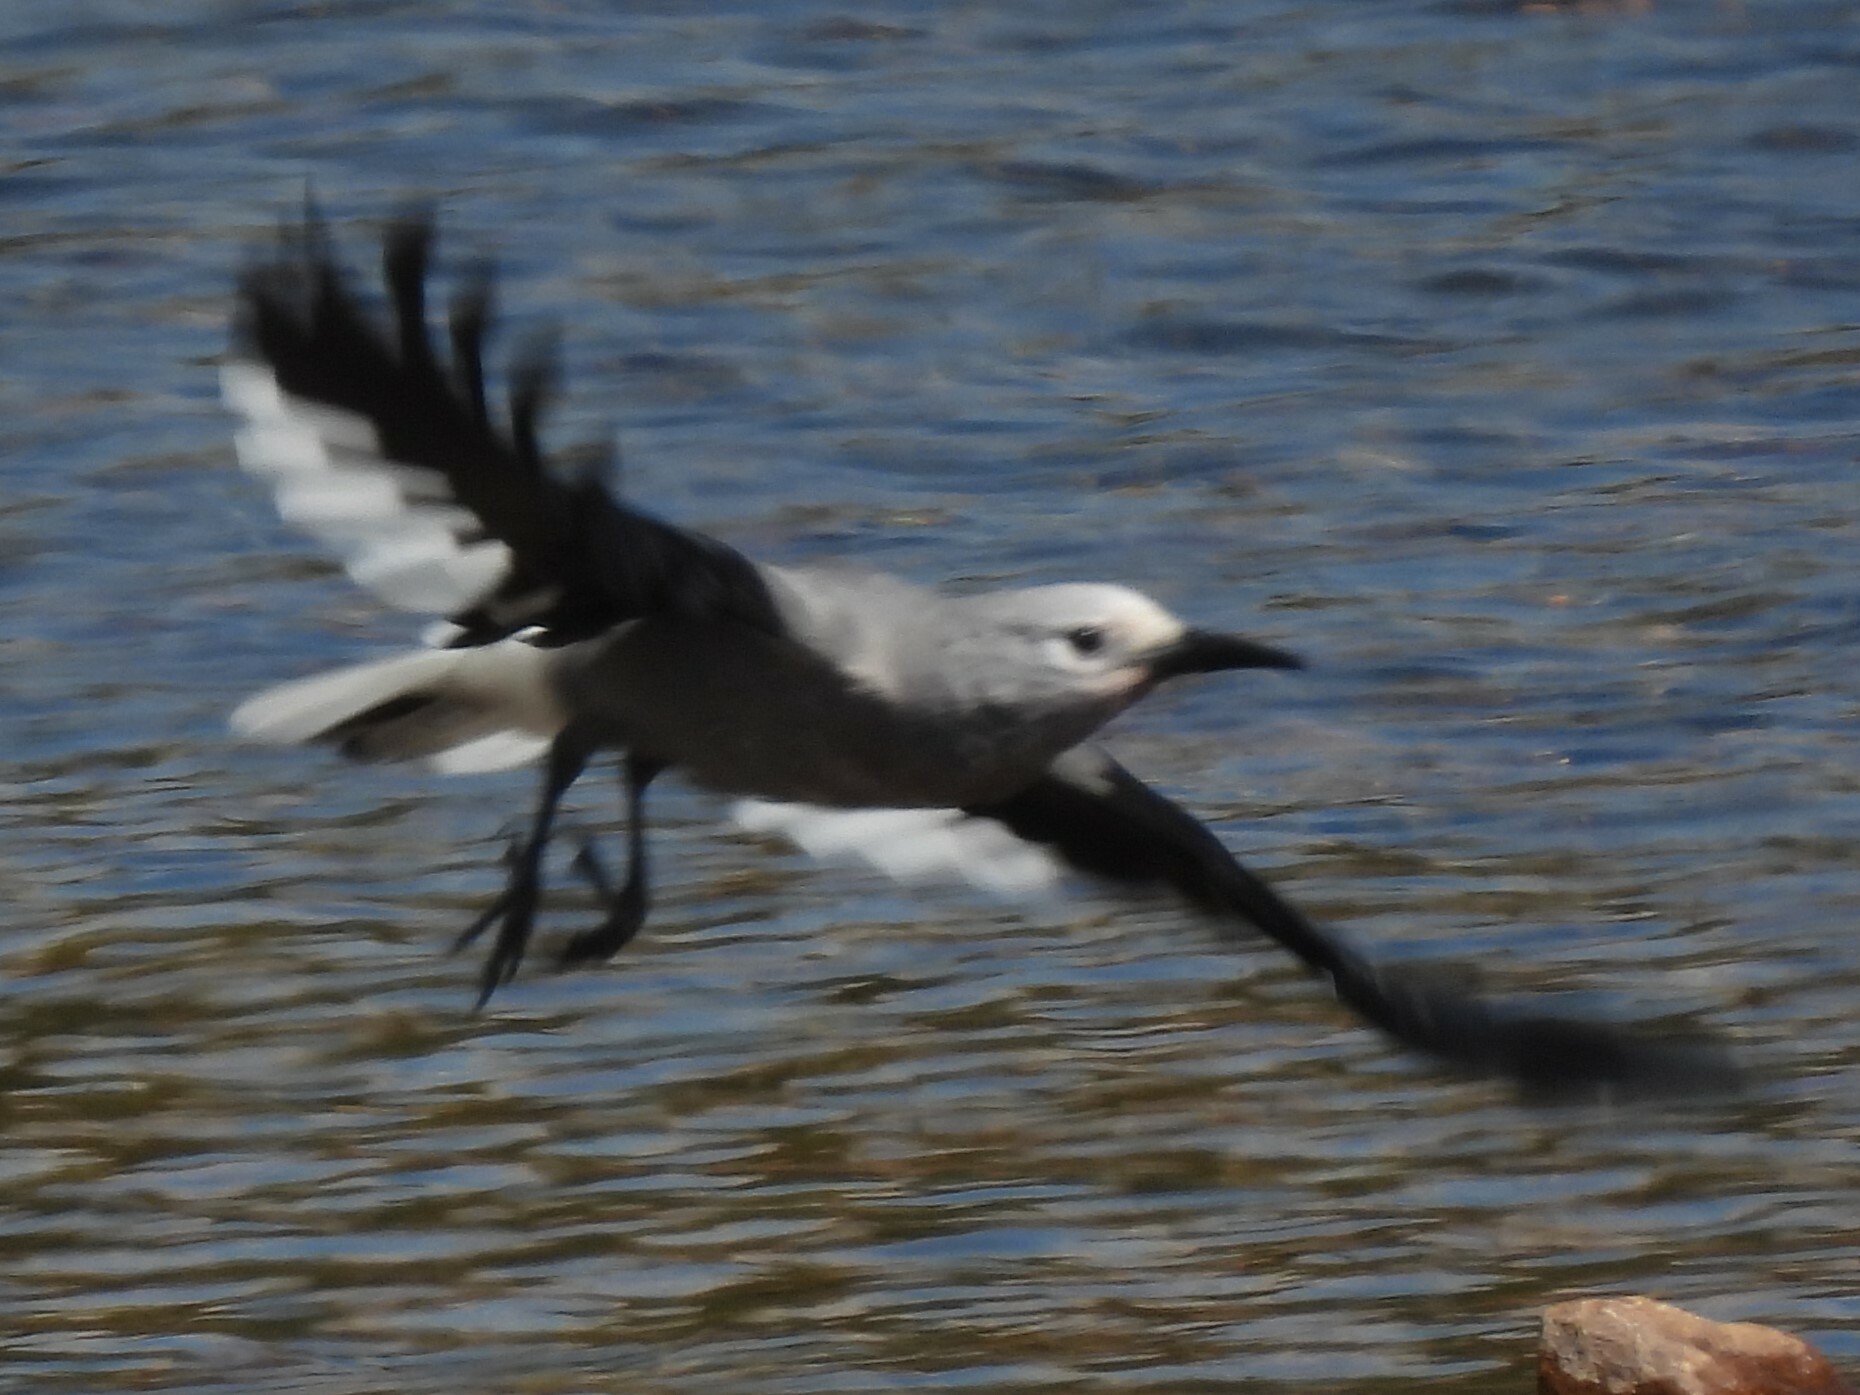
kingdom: Animalia
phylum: Chordata
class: Aves
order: Passeriformes
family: Corvidae
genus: Nucifraga
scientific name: Nucifraga columbiana
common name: Clark's nutcracker
